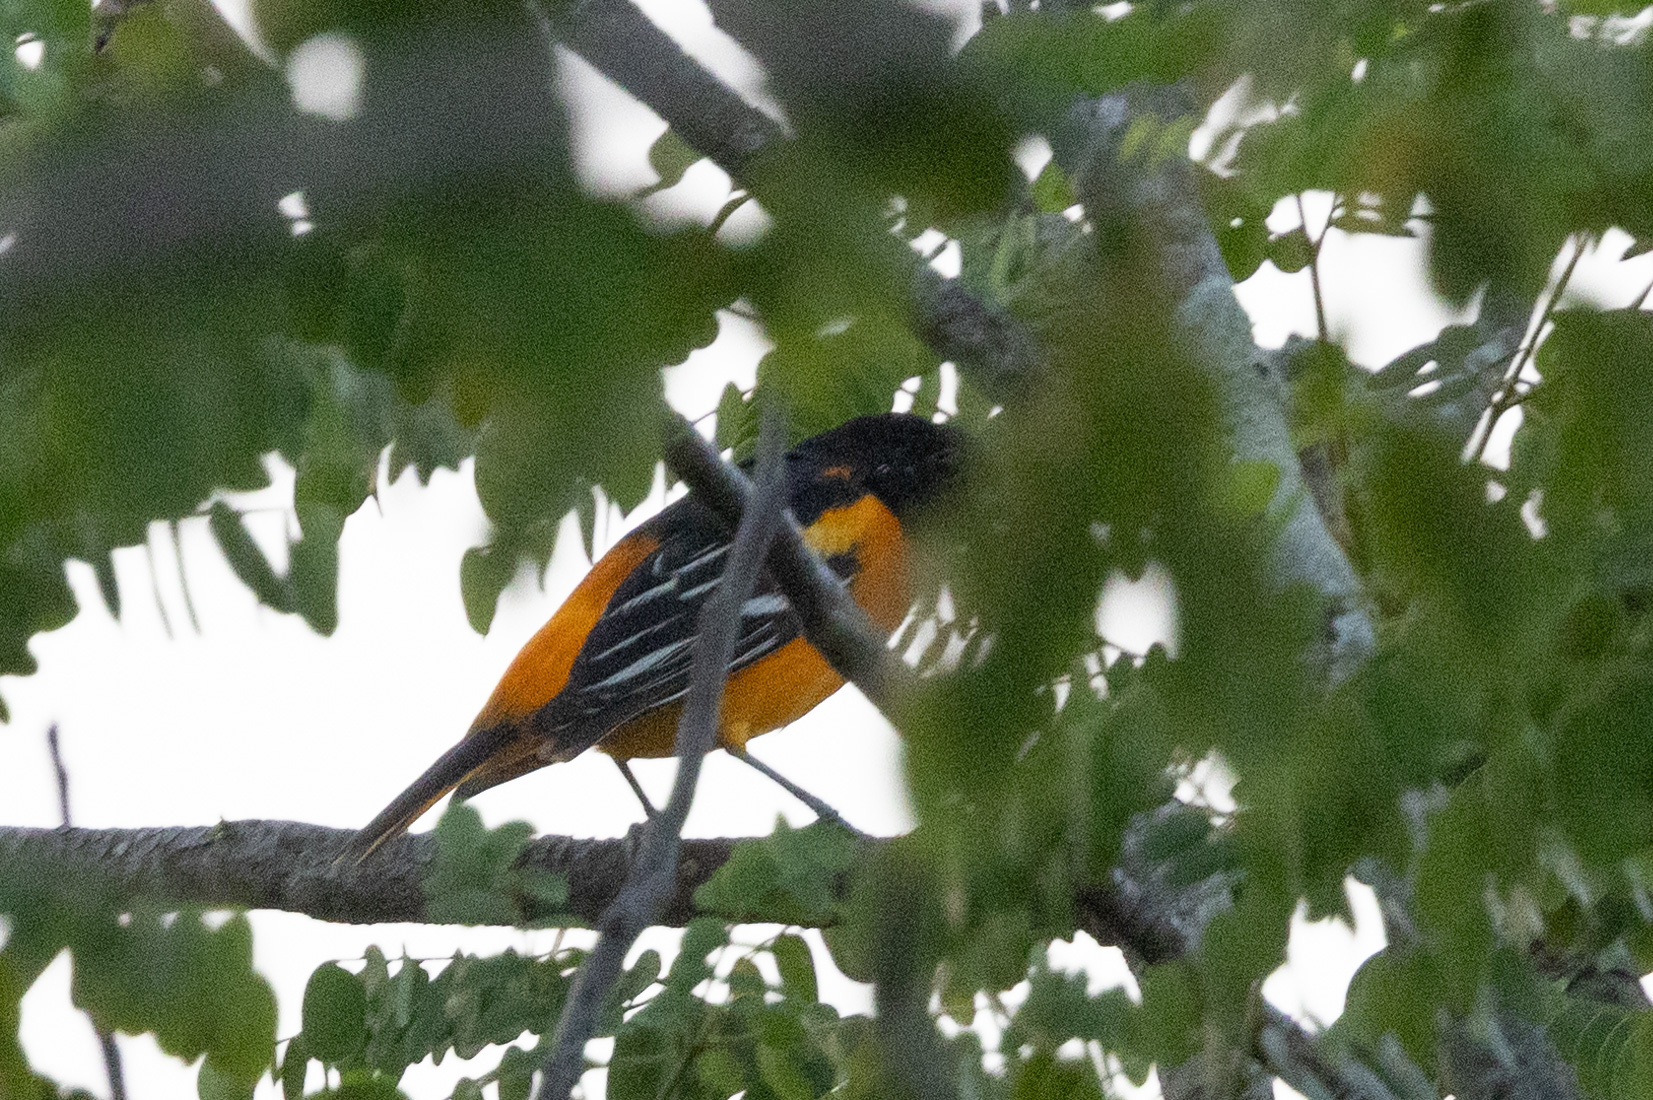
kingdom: Animalia
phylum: Chordata
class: Aves
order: Passeriformes
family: Icteridae
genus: Icterus
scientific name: Icterus galbula
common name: Baltimore oriole
